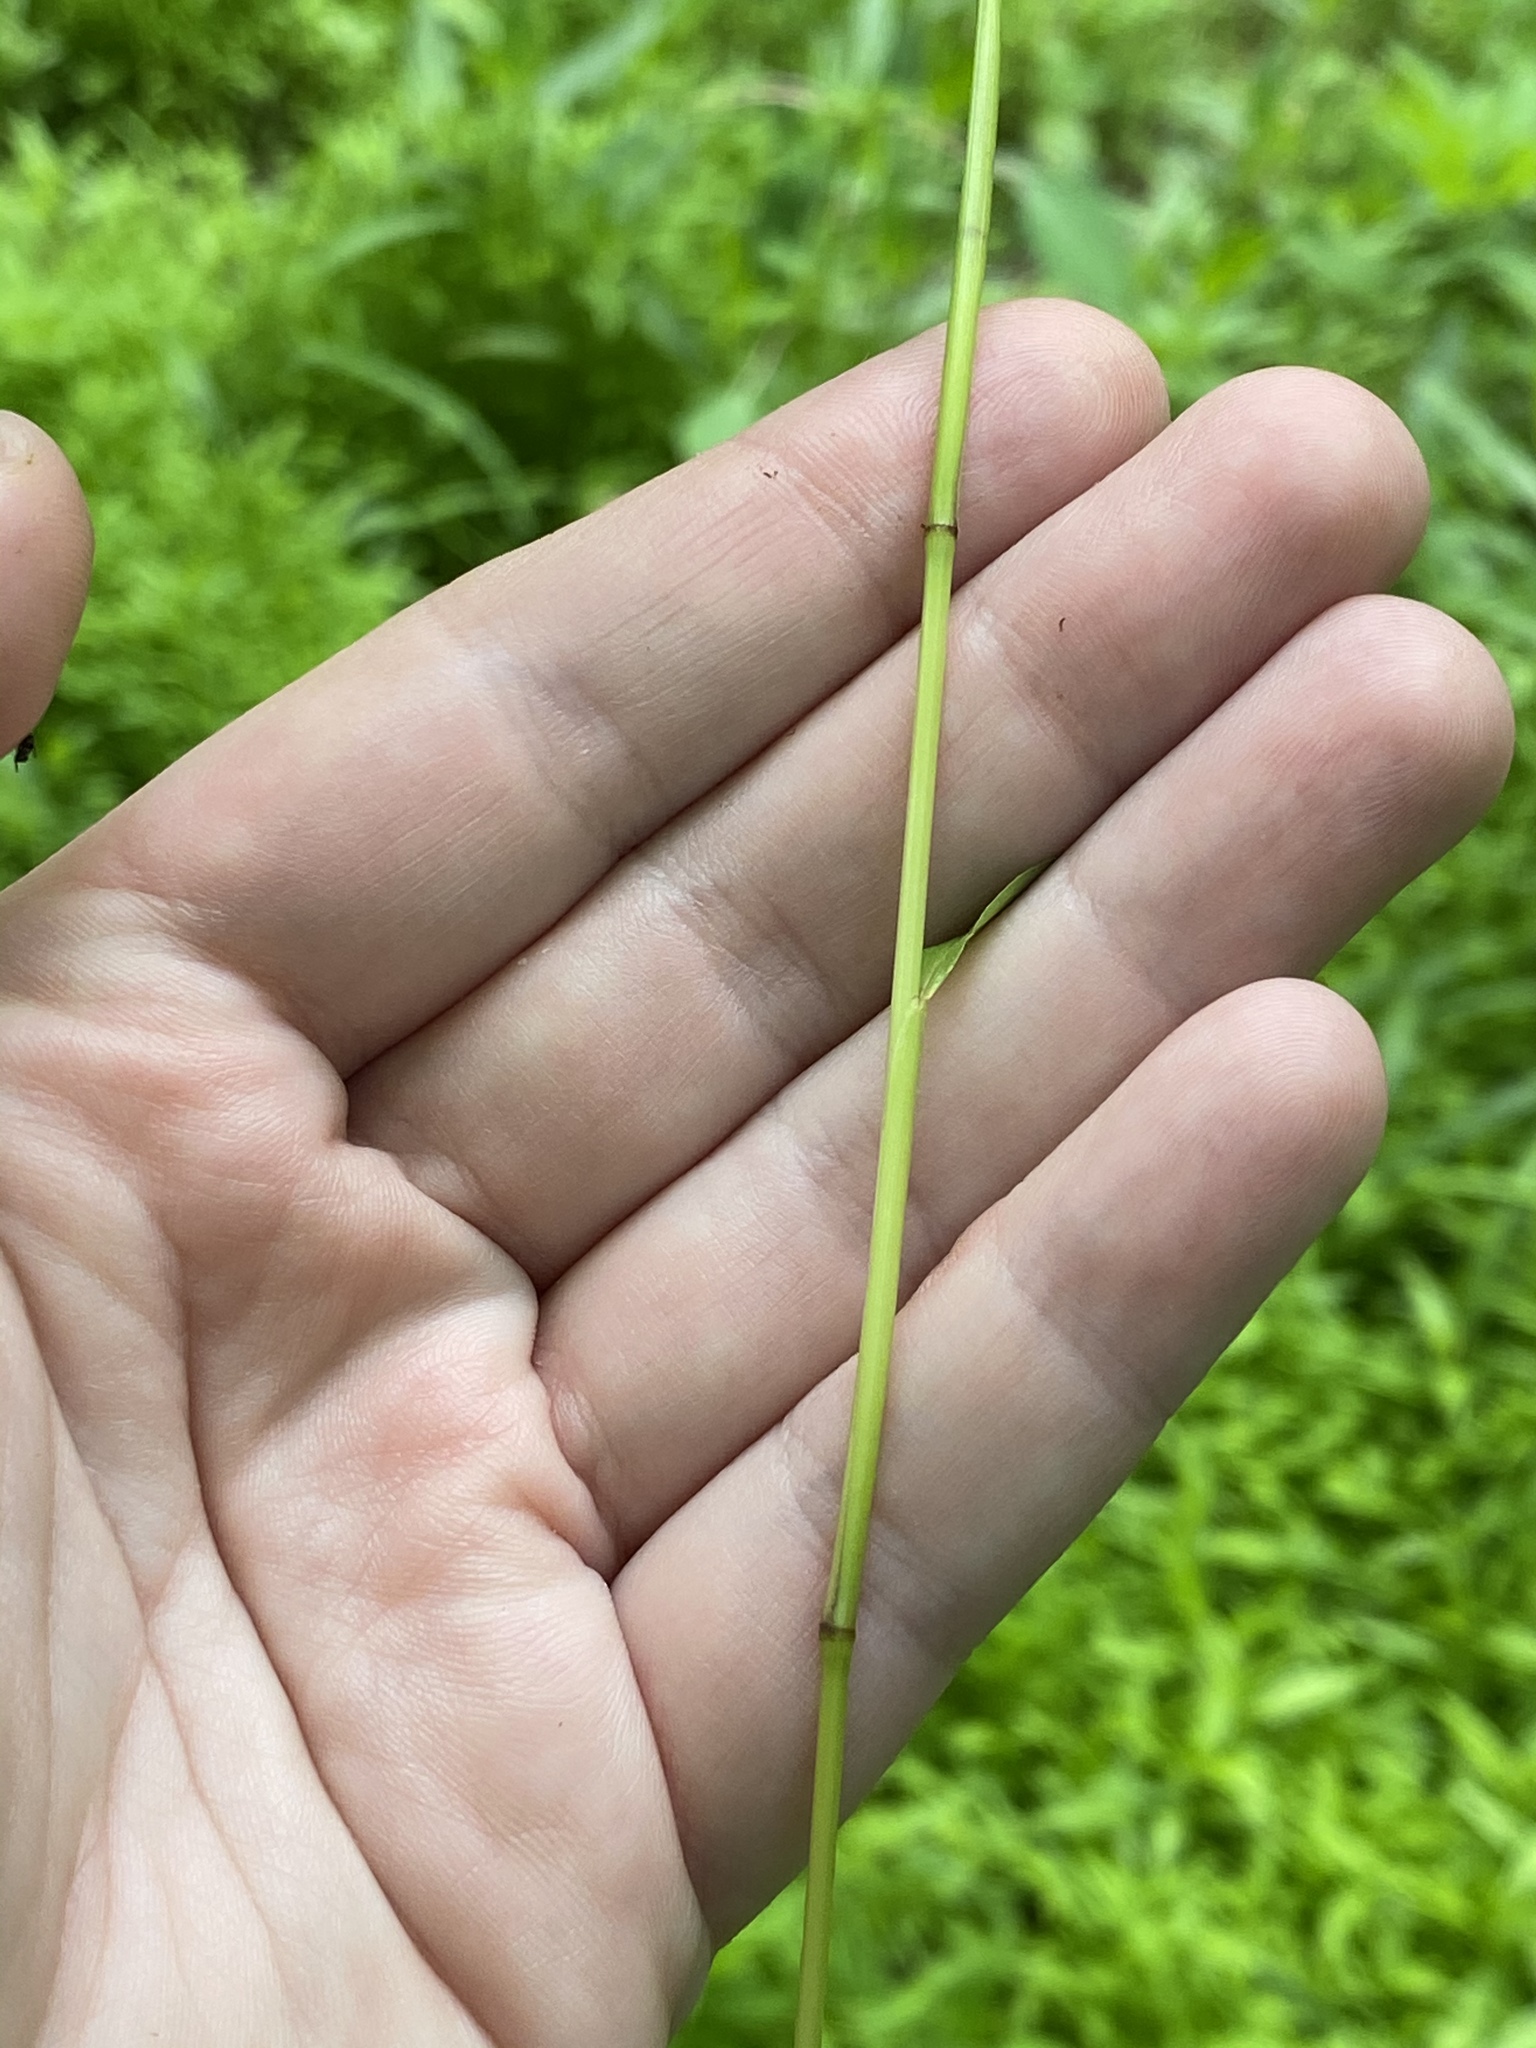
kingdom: Plantae
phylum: Tracheophyta
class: Liliopsida
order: Poales
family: Poaceae
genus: Microstegium
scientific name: Microstegium vimineum
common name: Japanese stiltgrass
